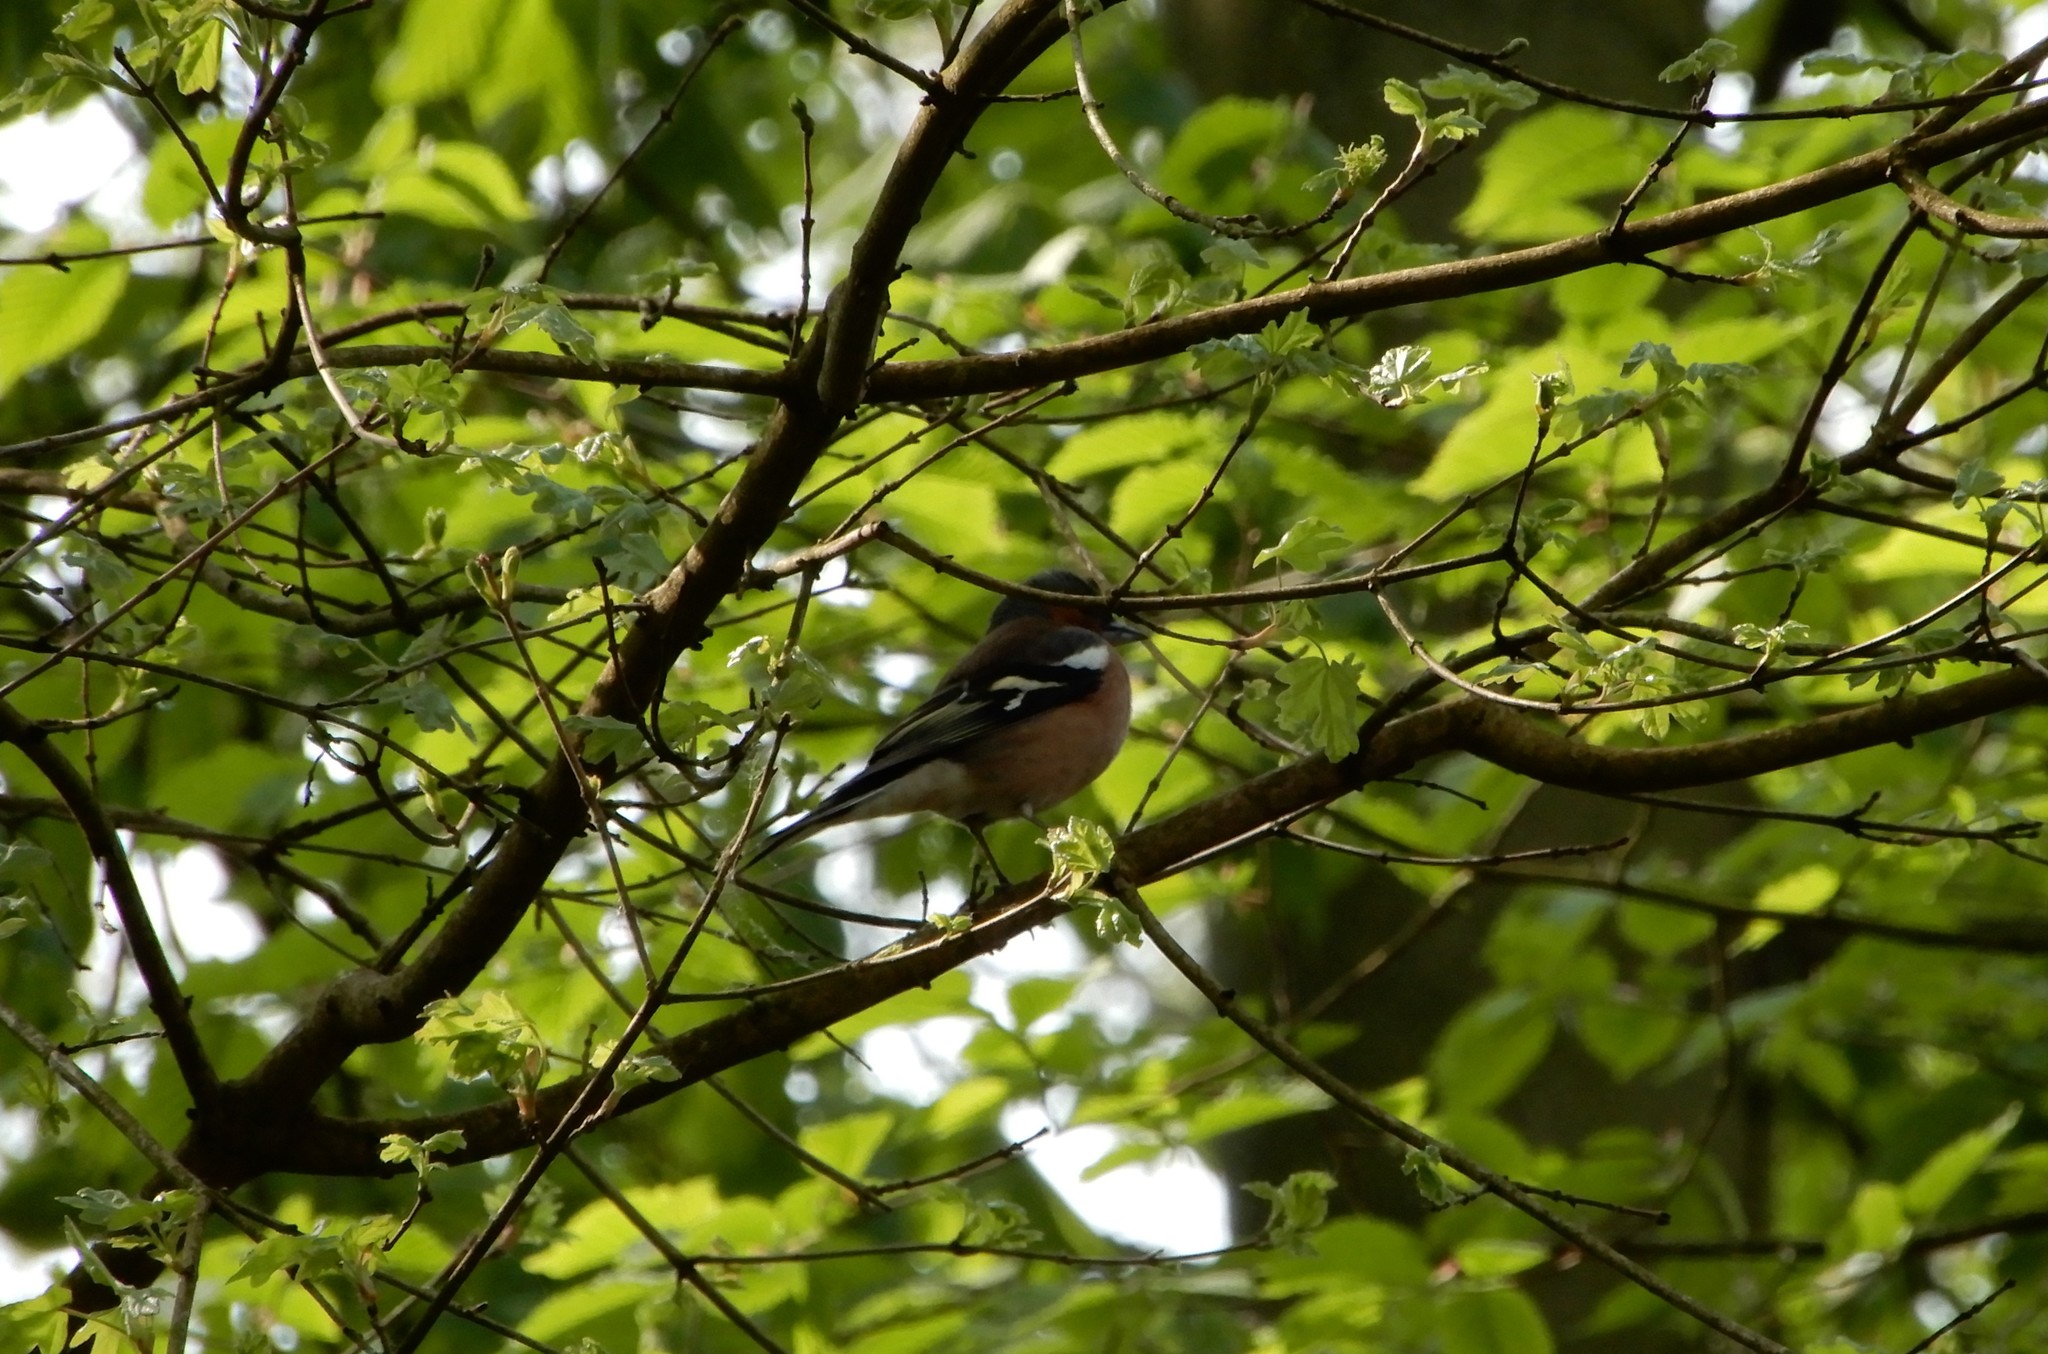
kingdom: Animalia
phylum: Chordata
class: Aves
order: Passeriformes
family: Fringillidae
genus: Fringilla
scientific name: Fringilla coelebs
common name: Common chaffinch
